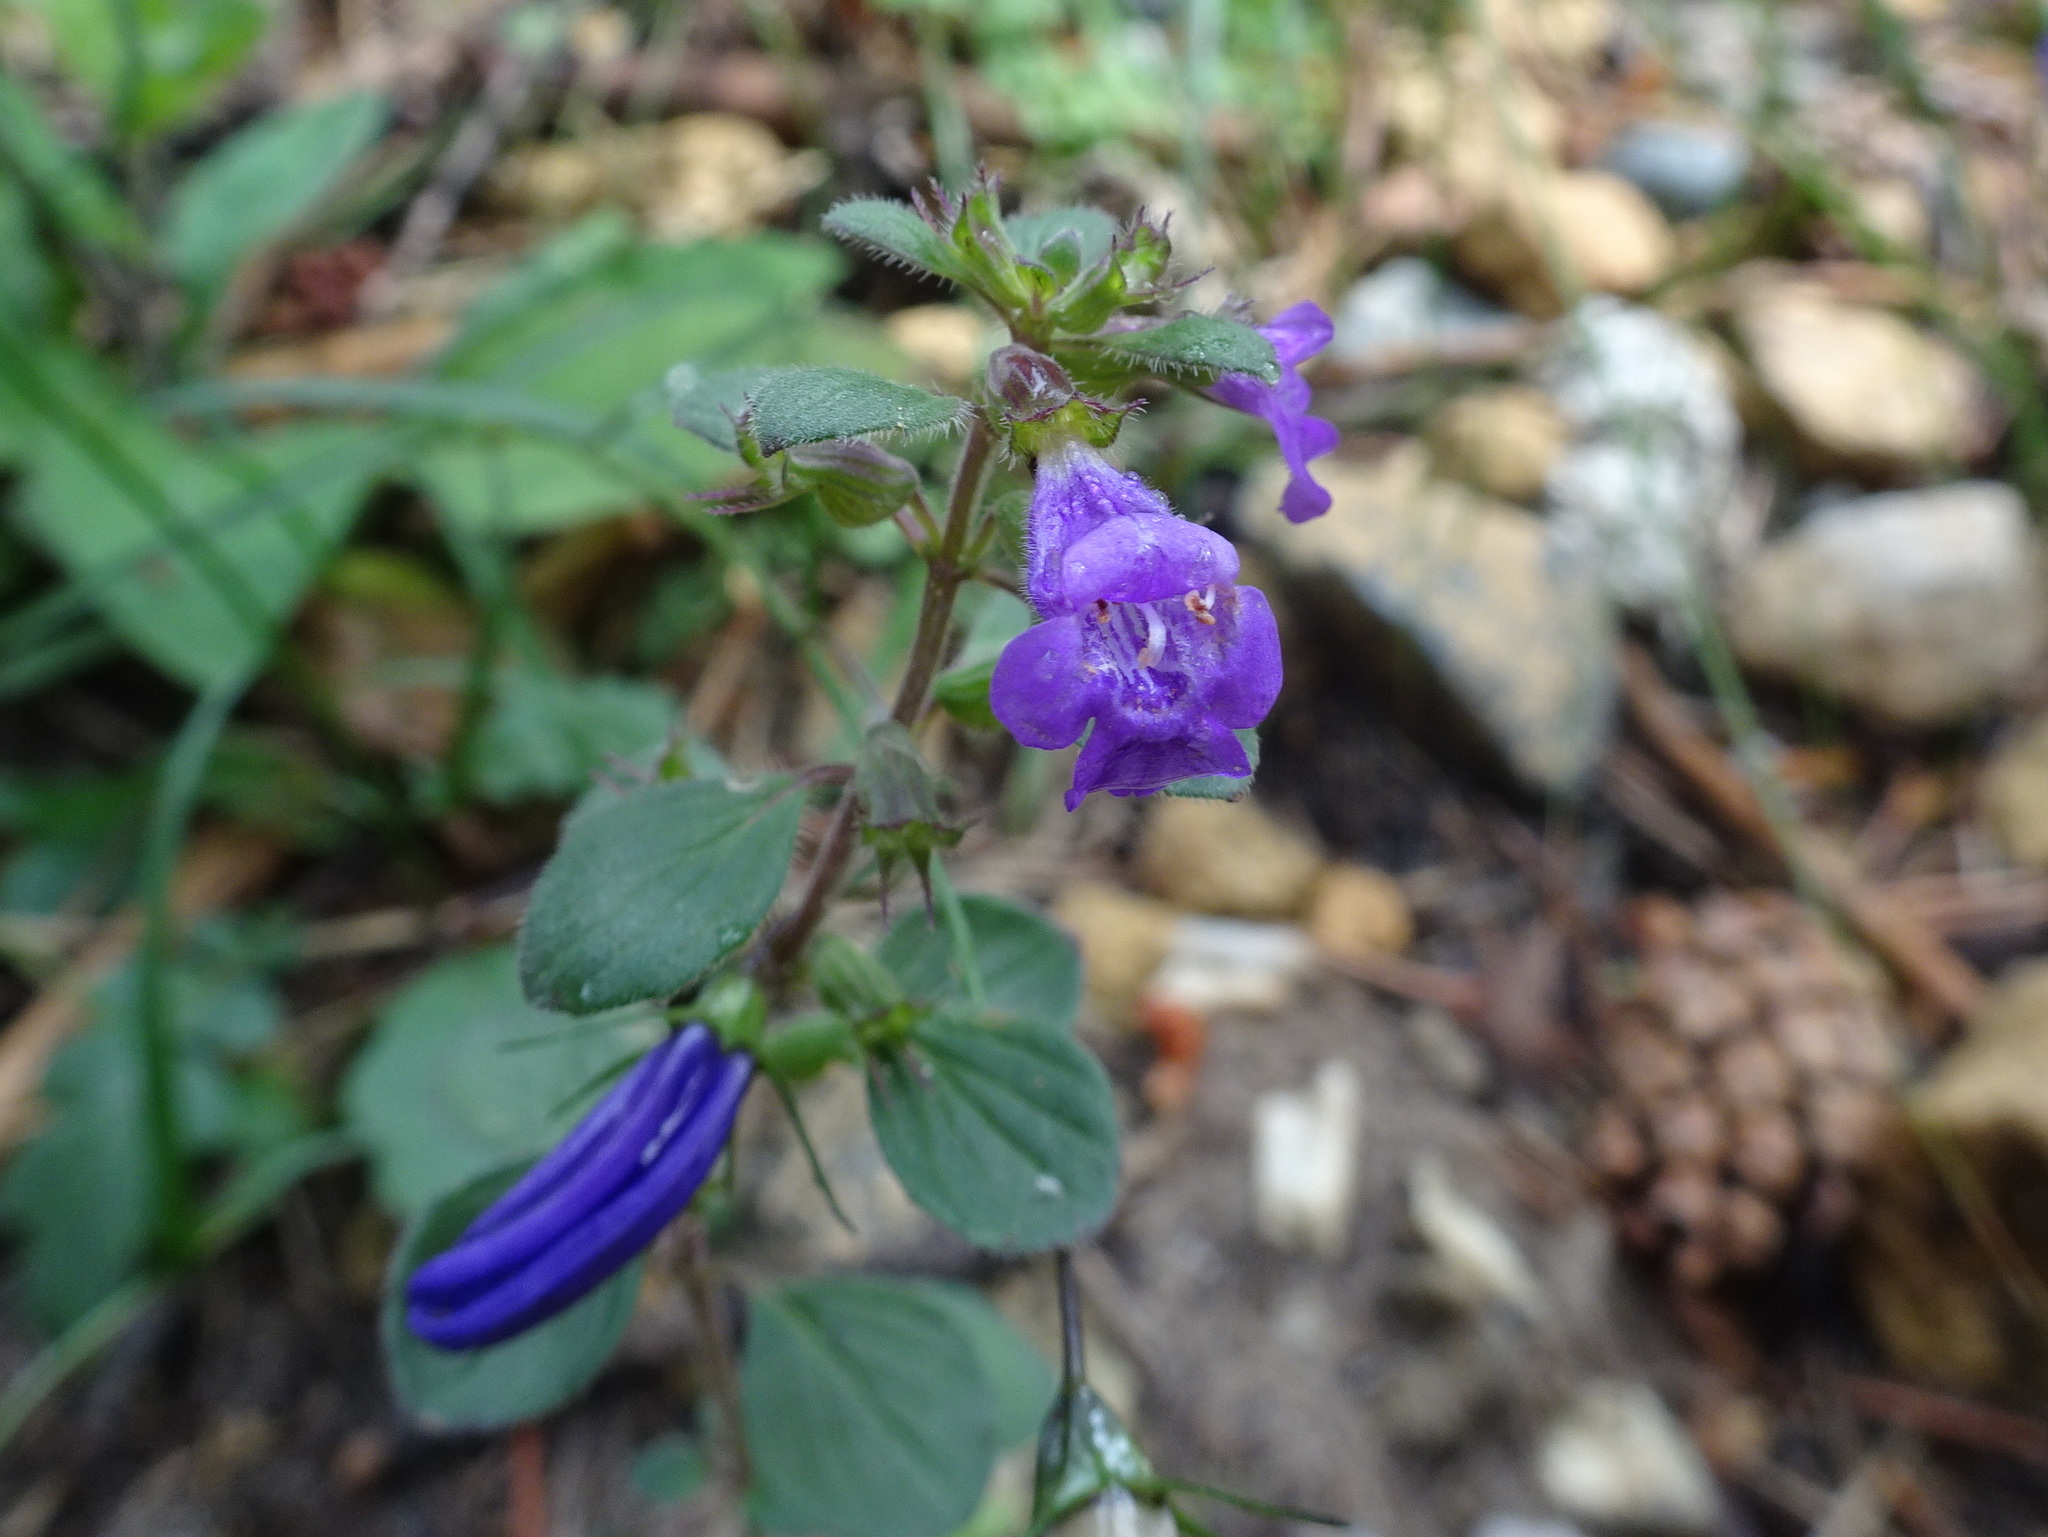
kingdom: Plantae
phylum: Tracheophyta
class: Magnoliopsida
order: Lamiales
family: Lamiaceae
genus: Clinopodium
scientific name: Clinopodium alpinum
